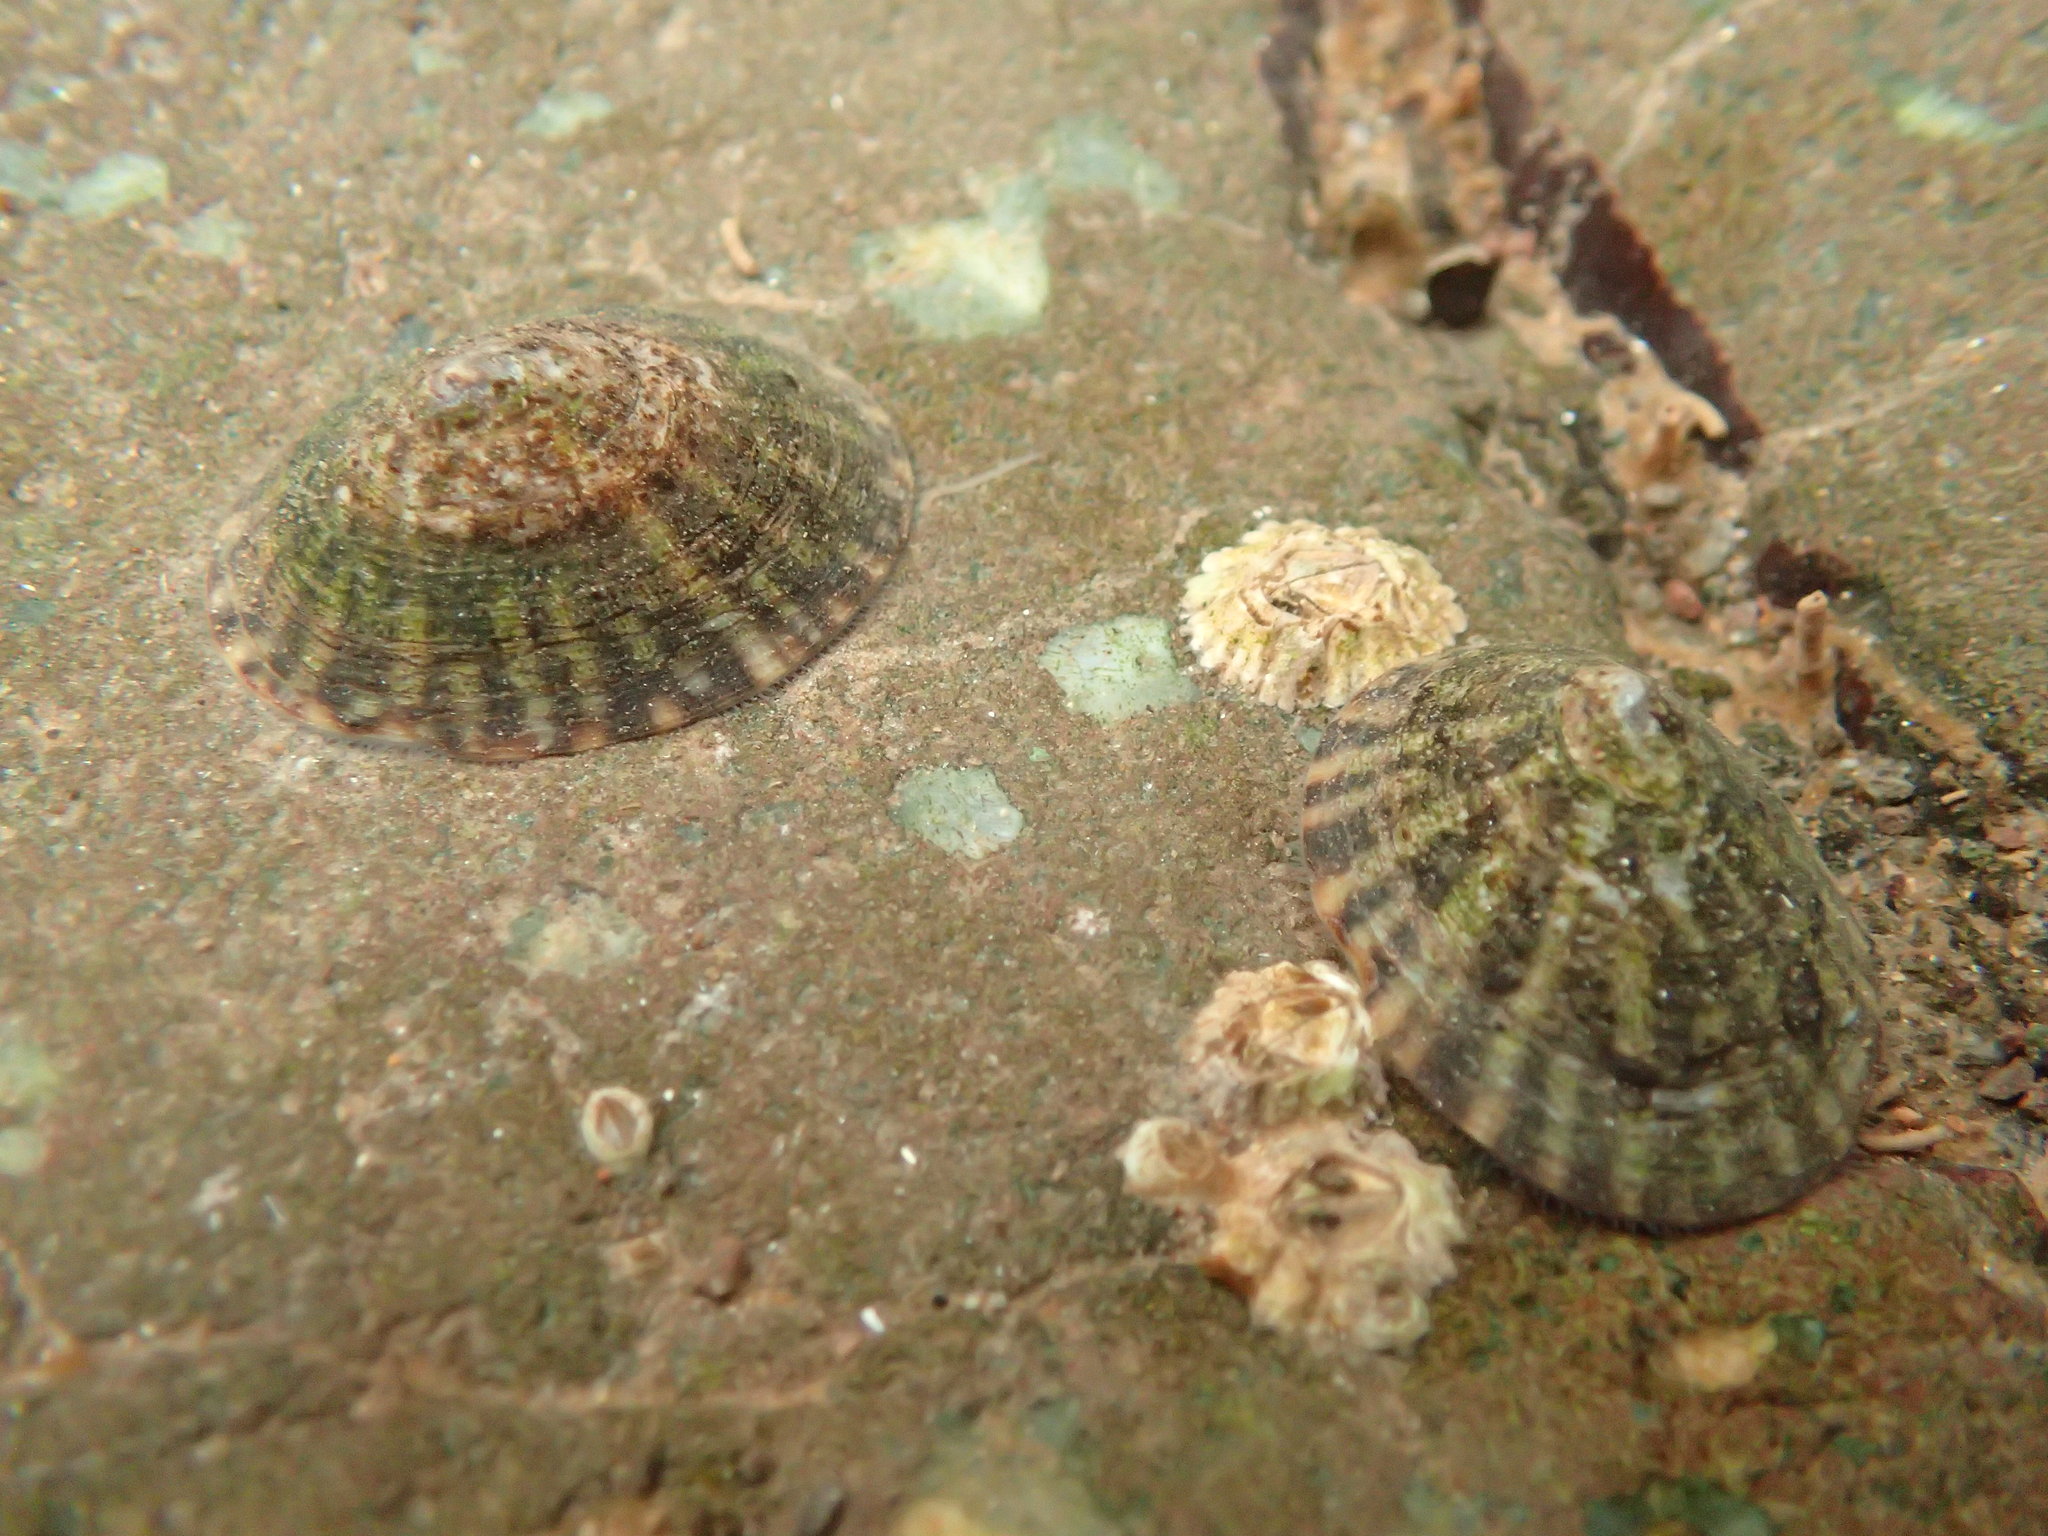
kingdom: Animalia
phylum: Mollusca
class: Gastropoda
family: Lottiidae
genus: Testudinalia
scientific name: Testudinalia testudinalis
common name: Common tortoiseshell limpet
